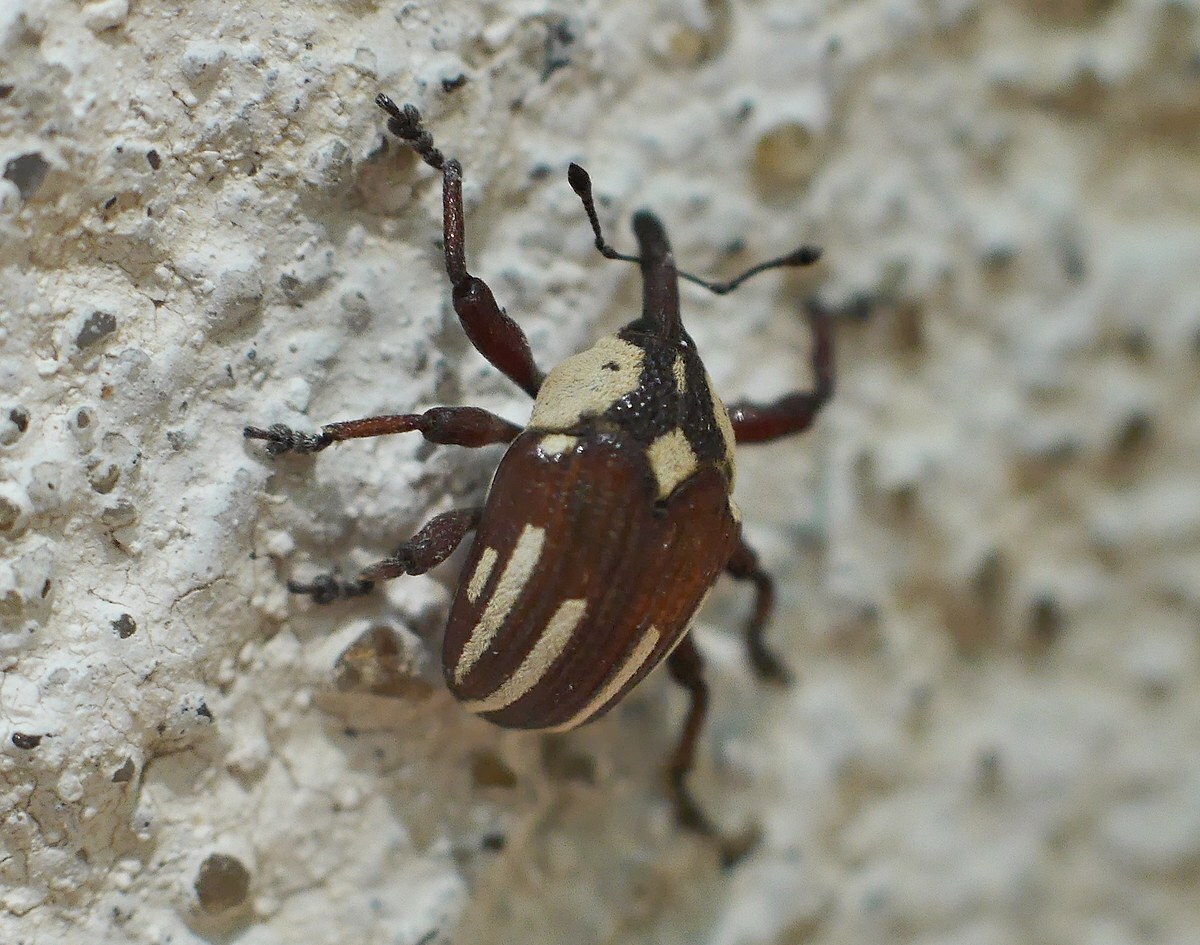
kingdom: Animalia
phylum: Arthropoda
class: Insecta
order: Coleoptera
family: Curculionidae
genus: Sternuchopsis
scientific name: Sternuchopsis
